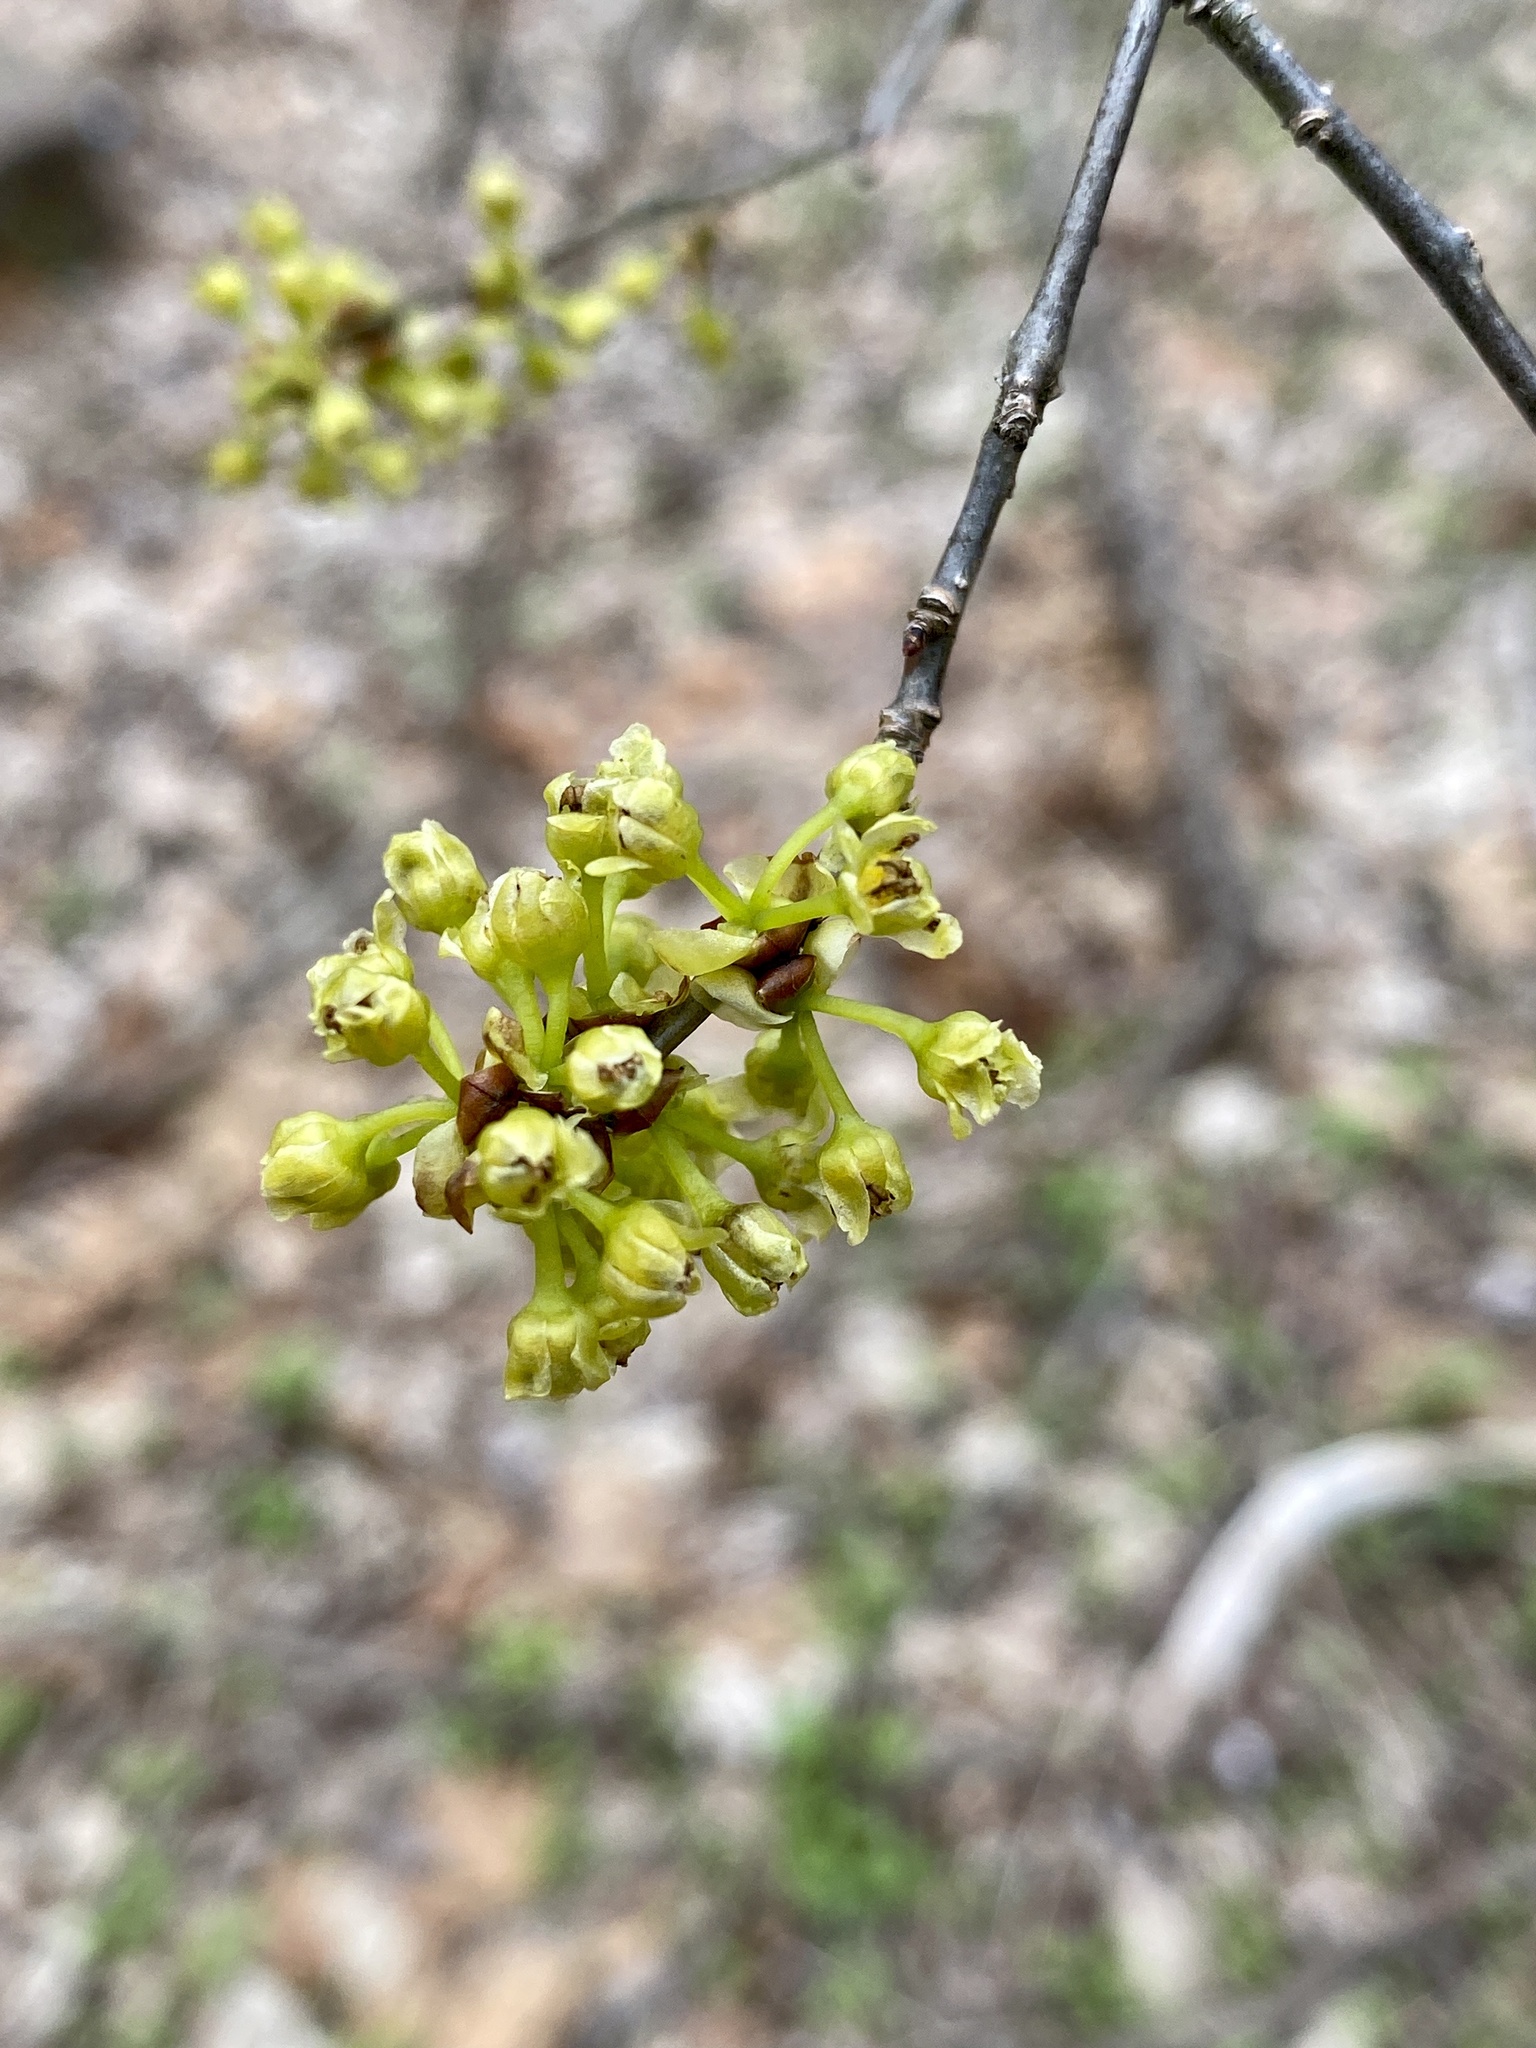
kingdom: Plantae
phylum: Tracheophyta
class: Magnoliopsida
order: Laurales
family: Lauraceae
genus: Lindera
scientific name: Lindera benzoin
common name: Spicebush
